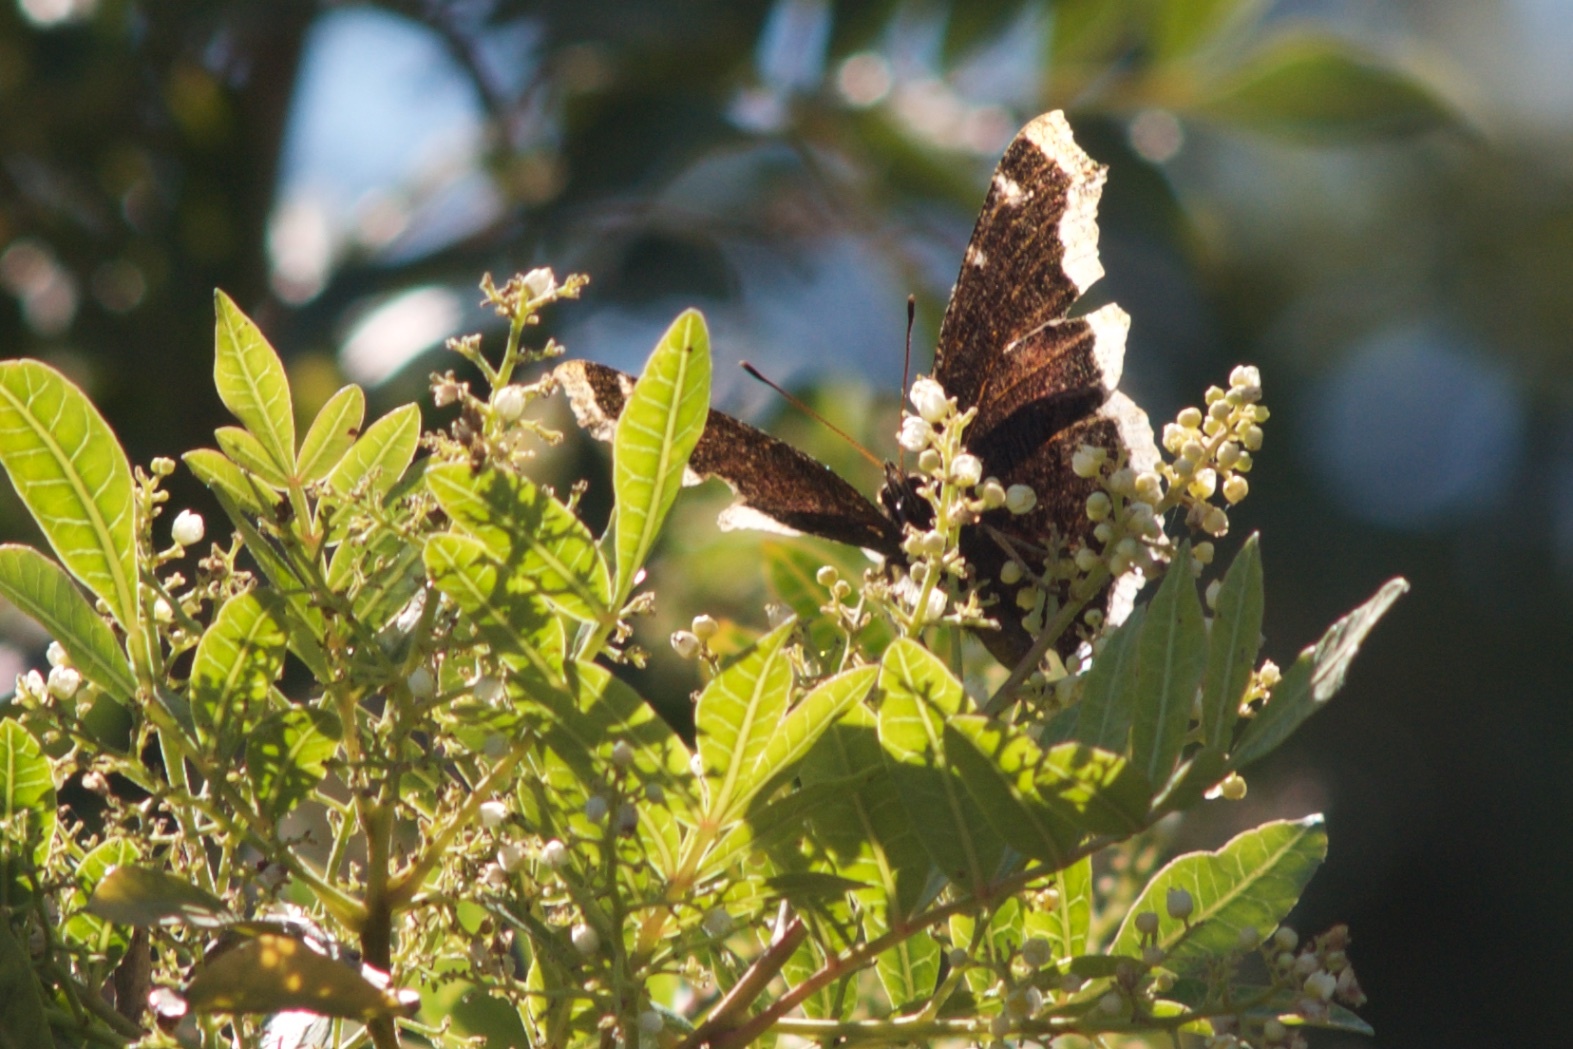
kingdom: Animalia
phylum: Arthropoda
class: Insecta
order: Lepidoptera
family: Nymphalidae
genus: Nymphalis
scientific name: Nymphalis antiopa
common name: Camberwell beauty
